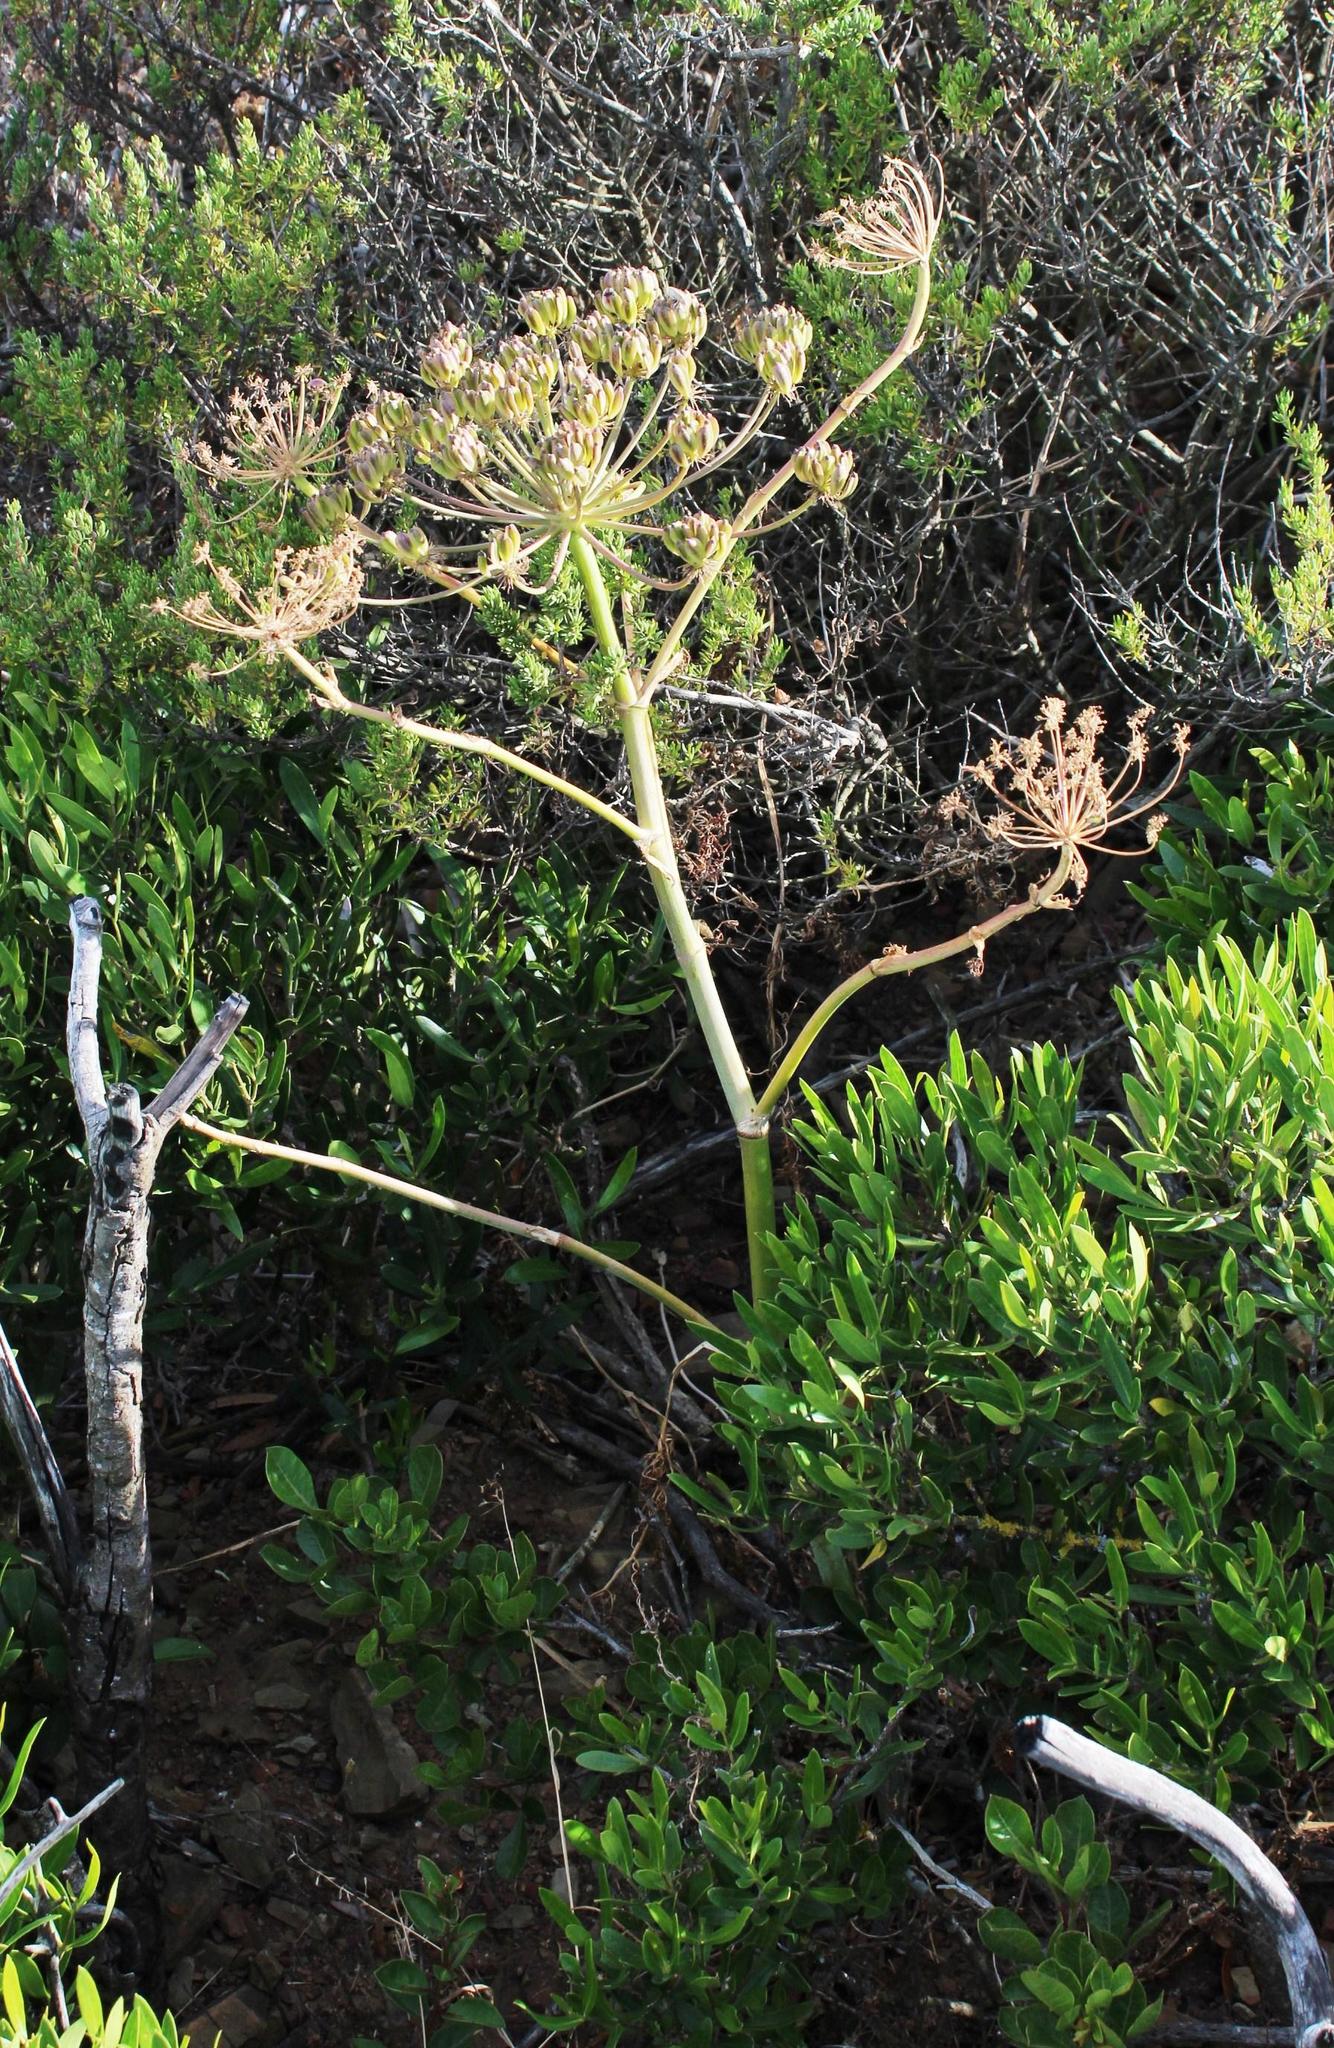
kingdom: Plantae
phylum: Tracheophyta
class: Magnoliopsida
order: Apiales
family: Apiaceae
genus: Cynorhiza
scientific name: Cynorhiza typica
